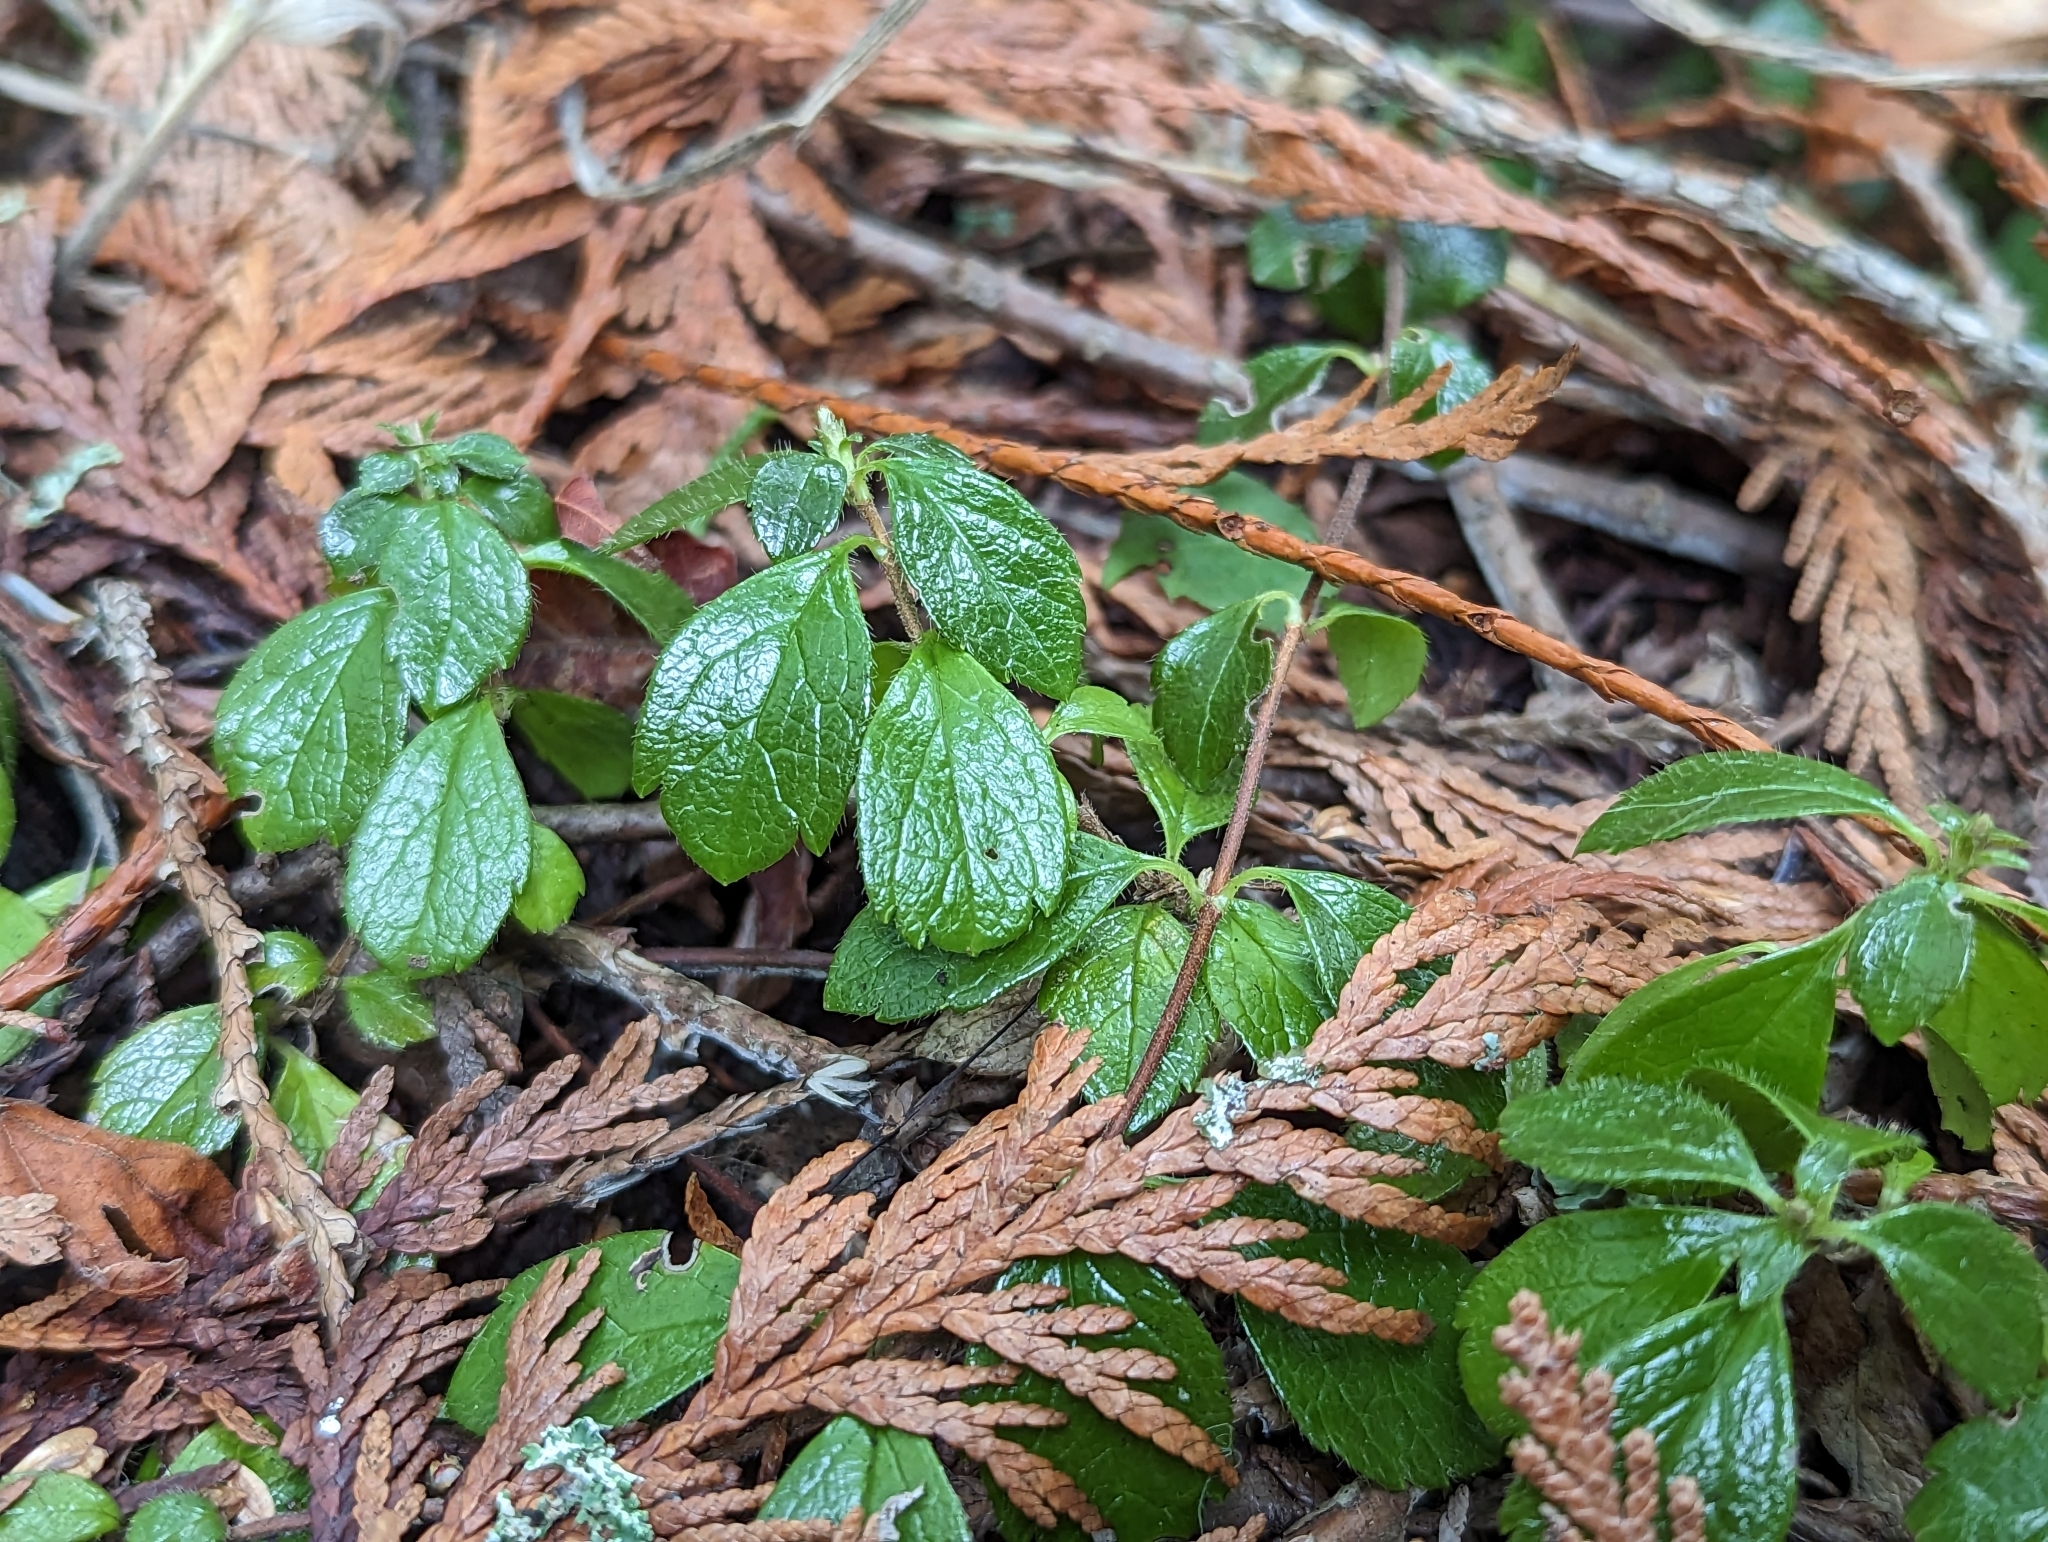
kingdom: Plantae
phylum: Tracheophyta
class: Magnoliopsida
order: Dipsacales
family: Caprifoliaceae
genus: Linnaea
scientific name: Linnaea borealis
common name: Twinflower
